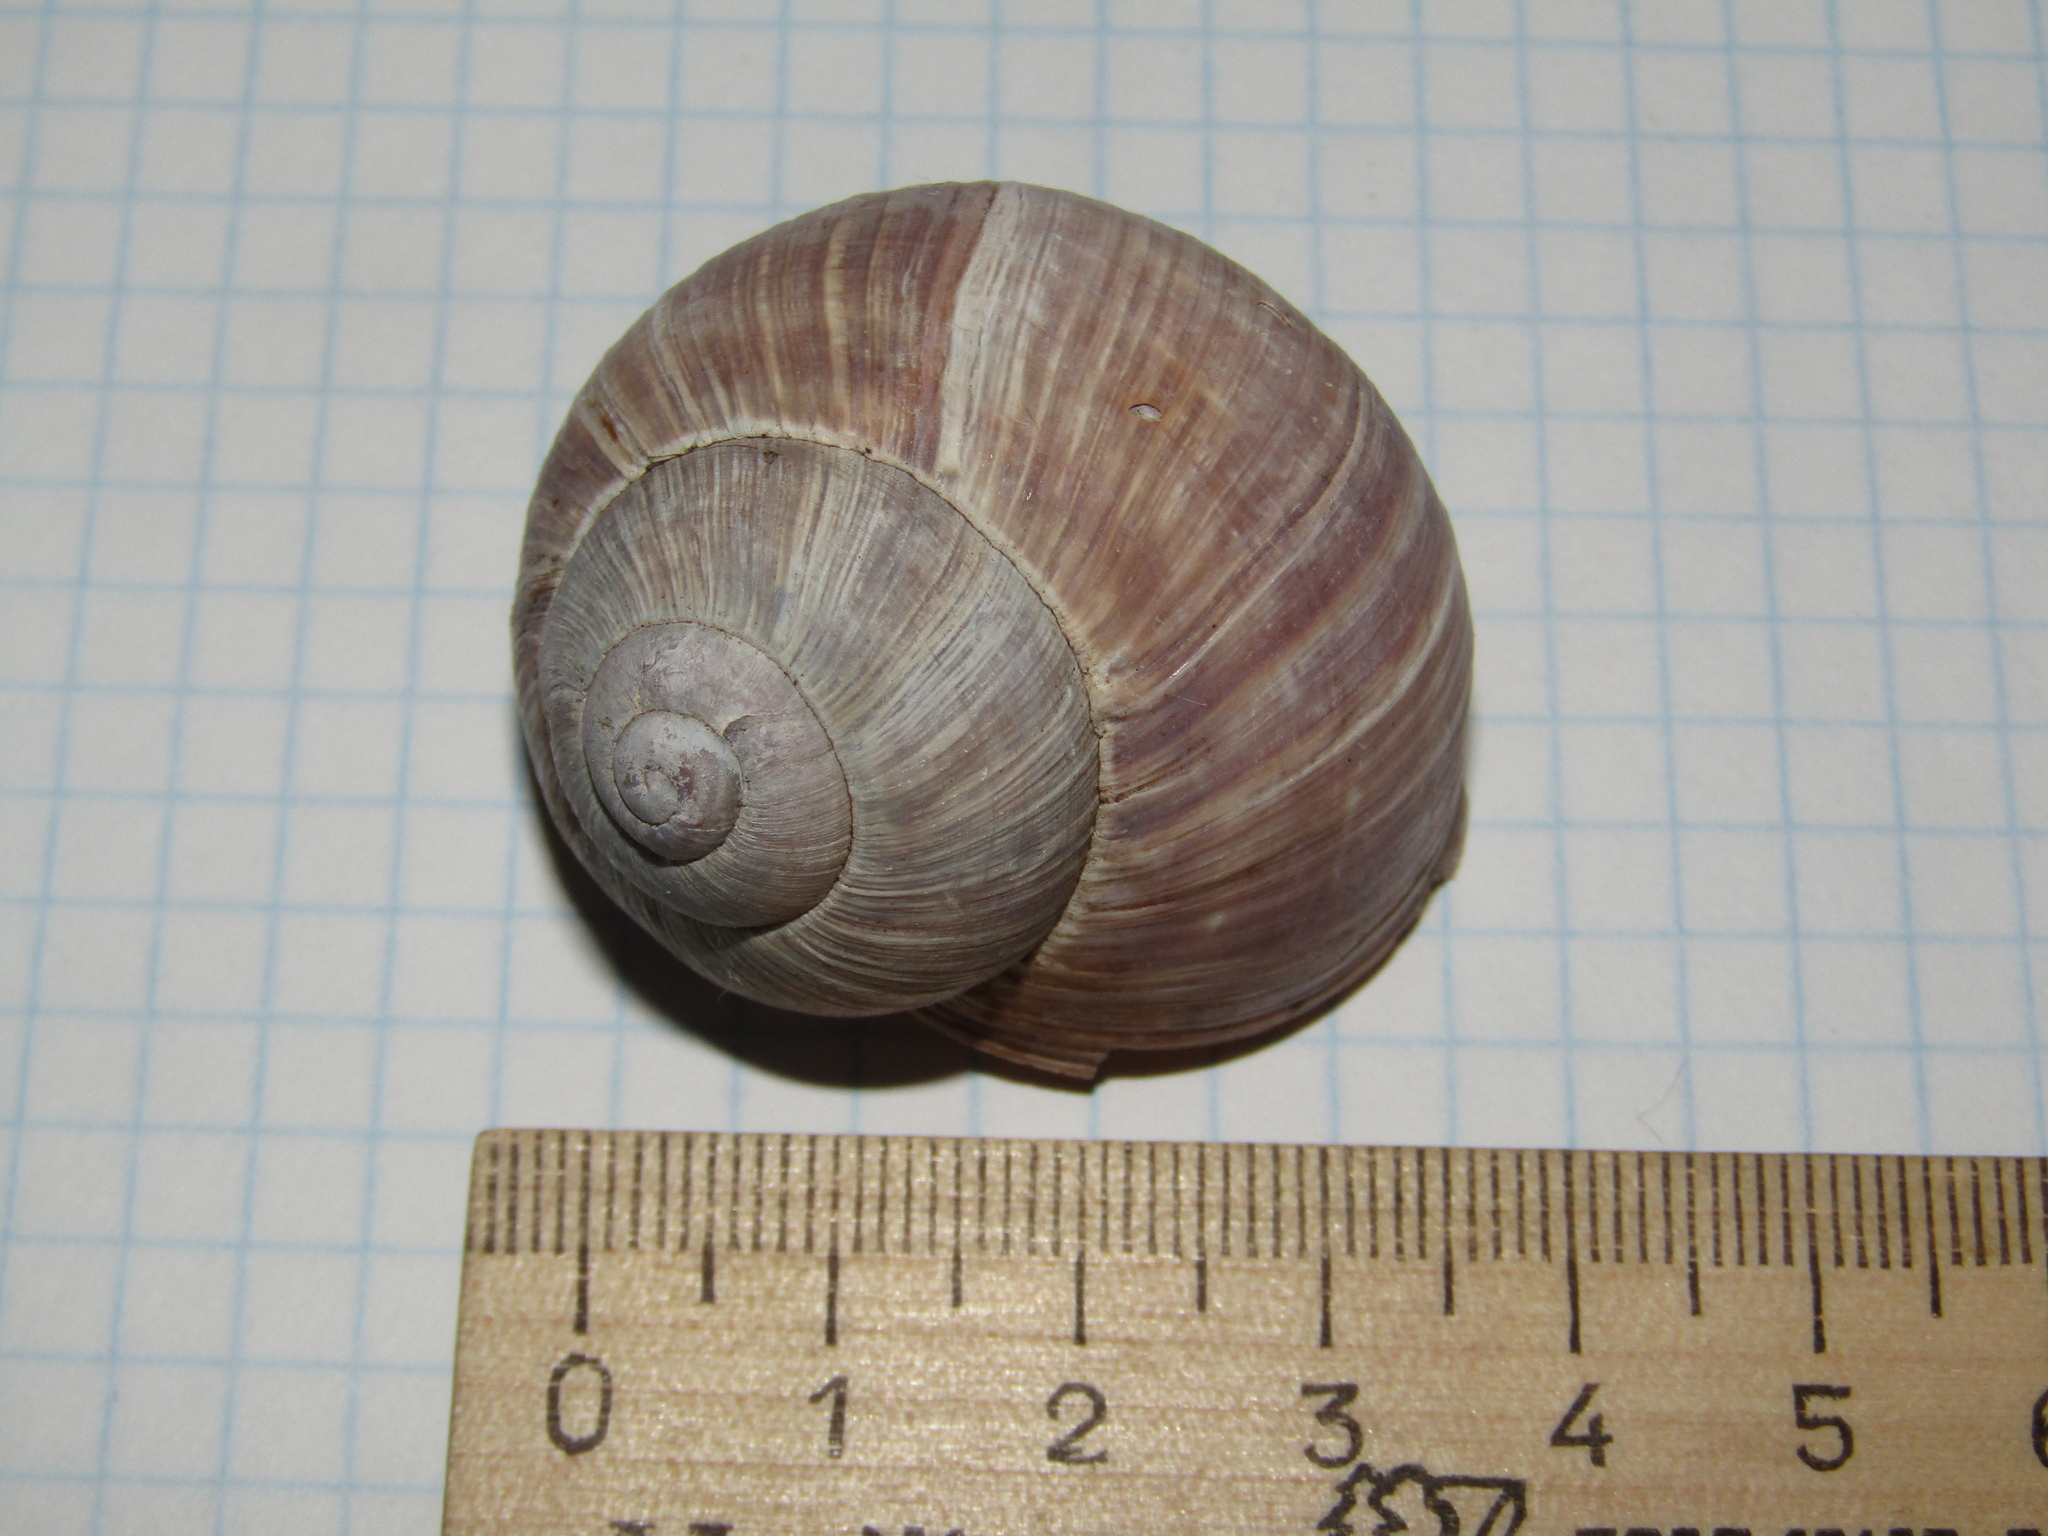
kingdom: Animalia
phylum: Mollusca
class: Gastropoda
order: Stylommatophora
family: Helicidae
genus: Helix
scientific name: Helix pomatia
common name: Roman snail
